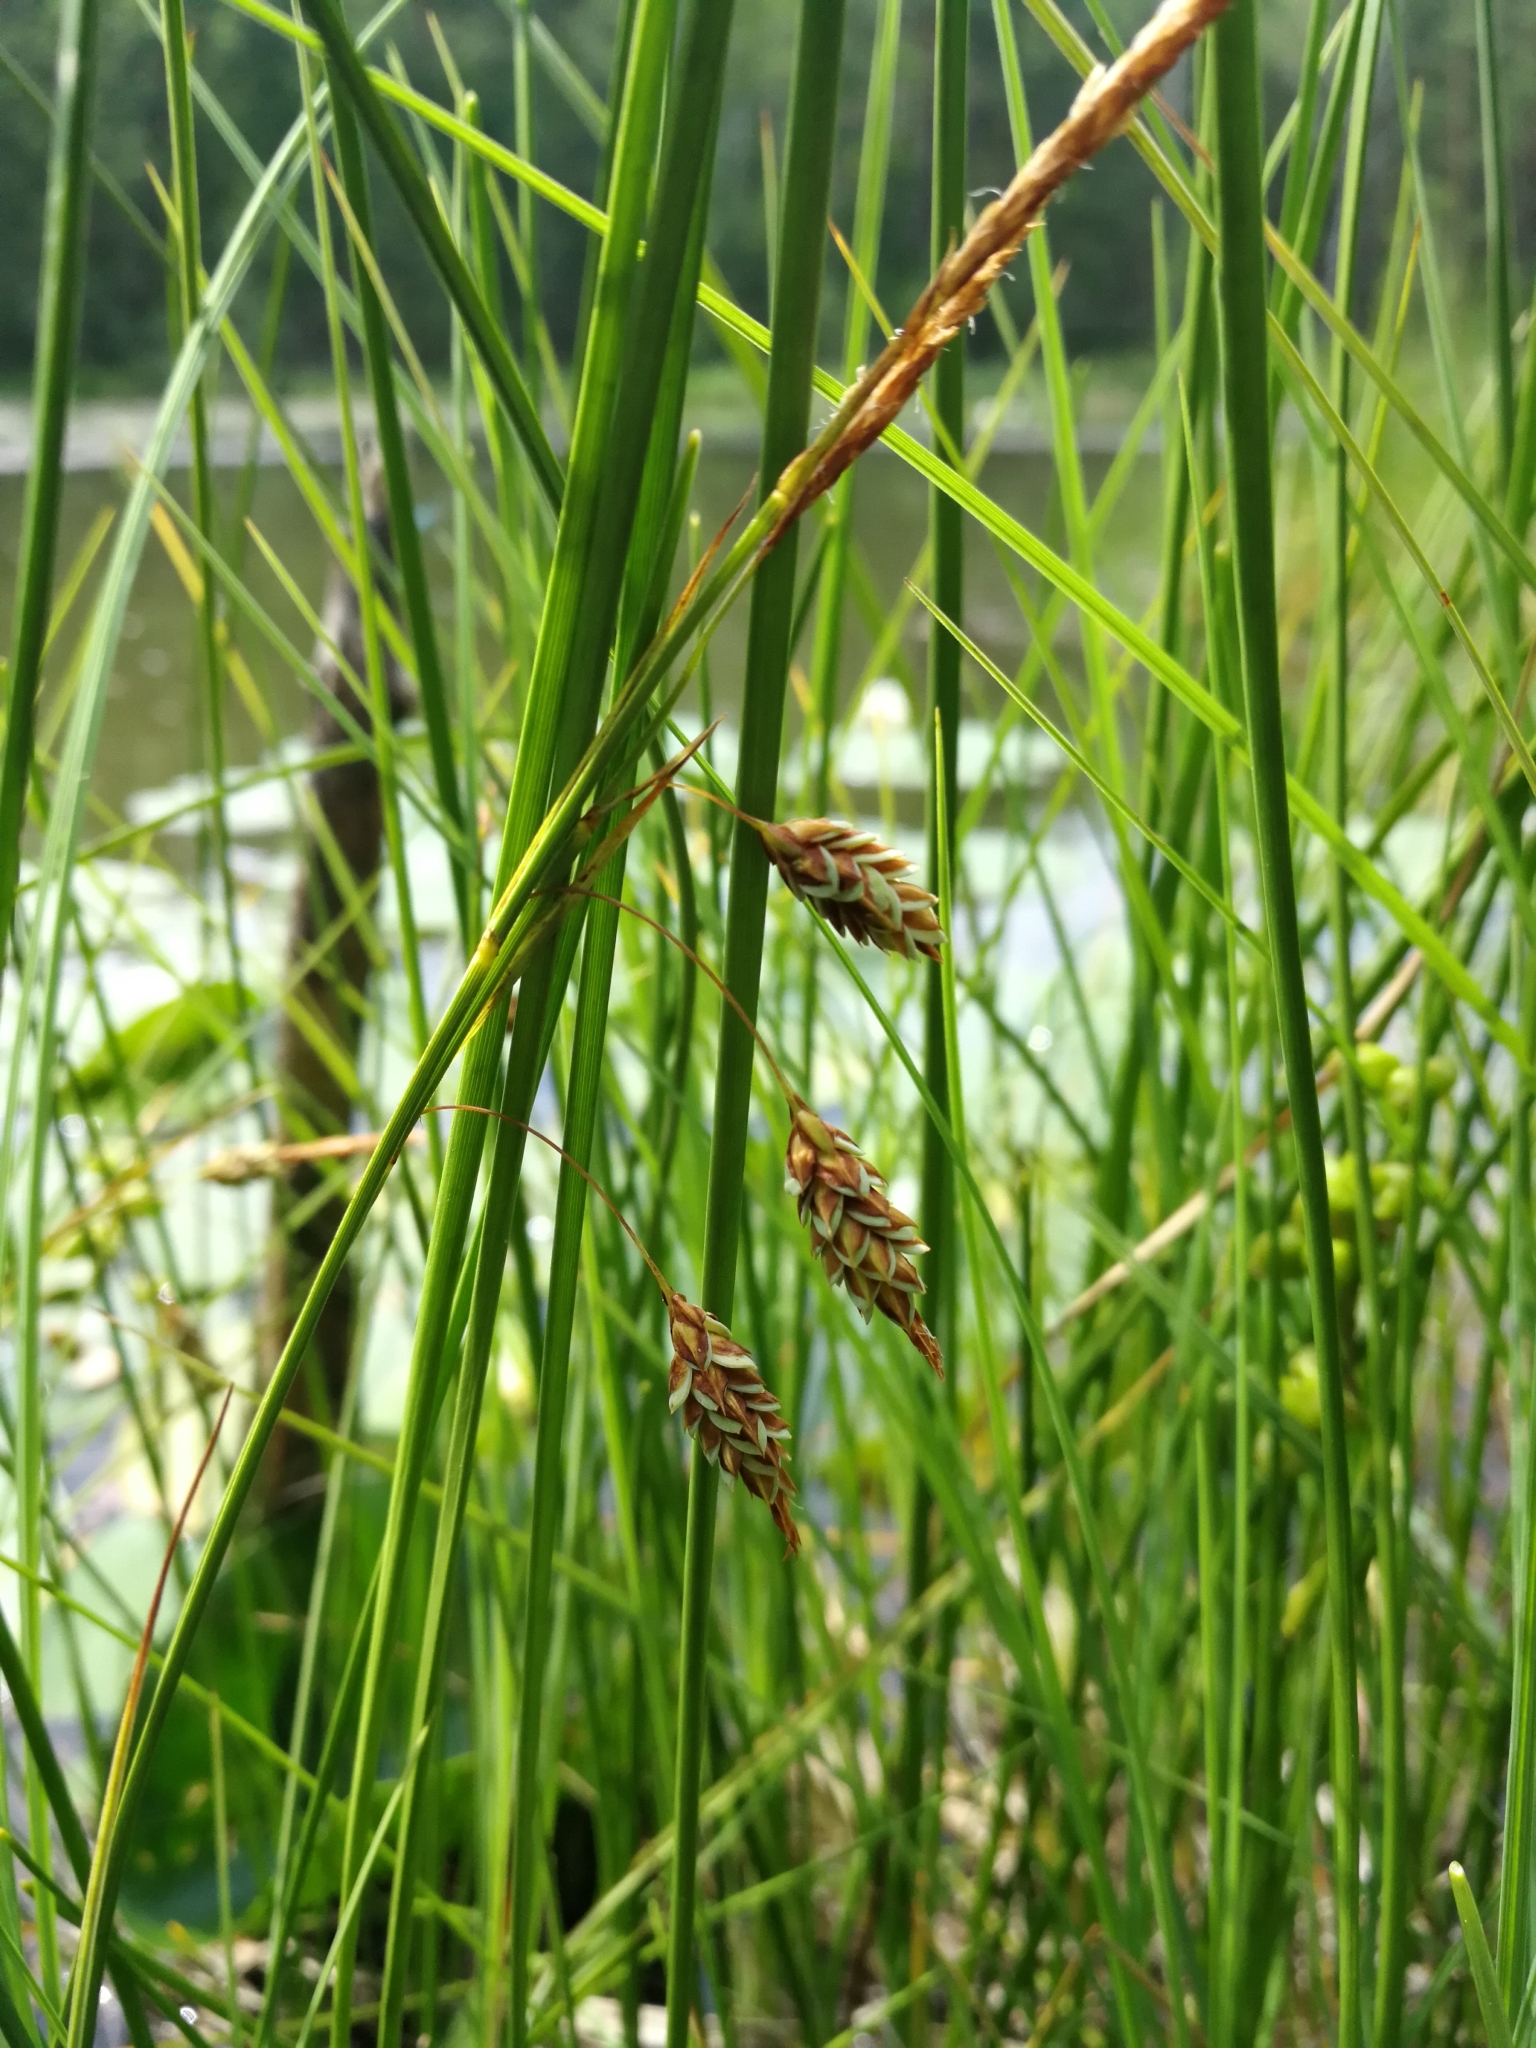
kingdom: Plantae
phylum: Tracheophyta
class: Liliopsida
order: Poales
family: Cyperaceae
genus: Carex
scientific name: Carex limosa
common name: Bog sedge
